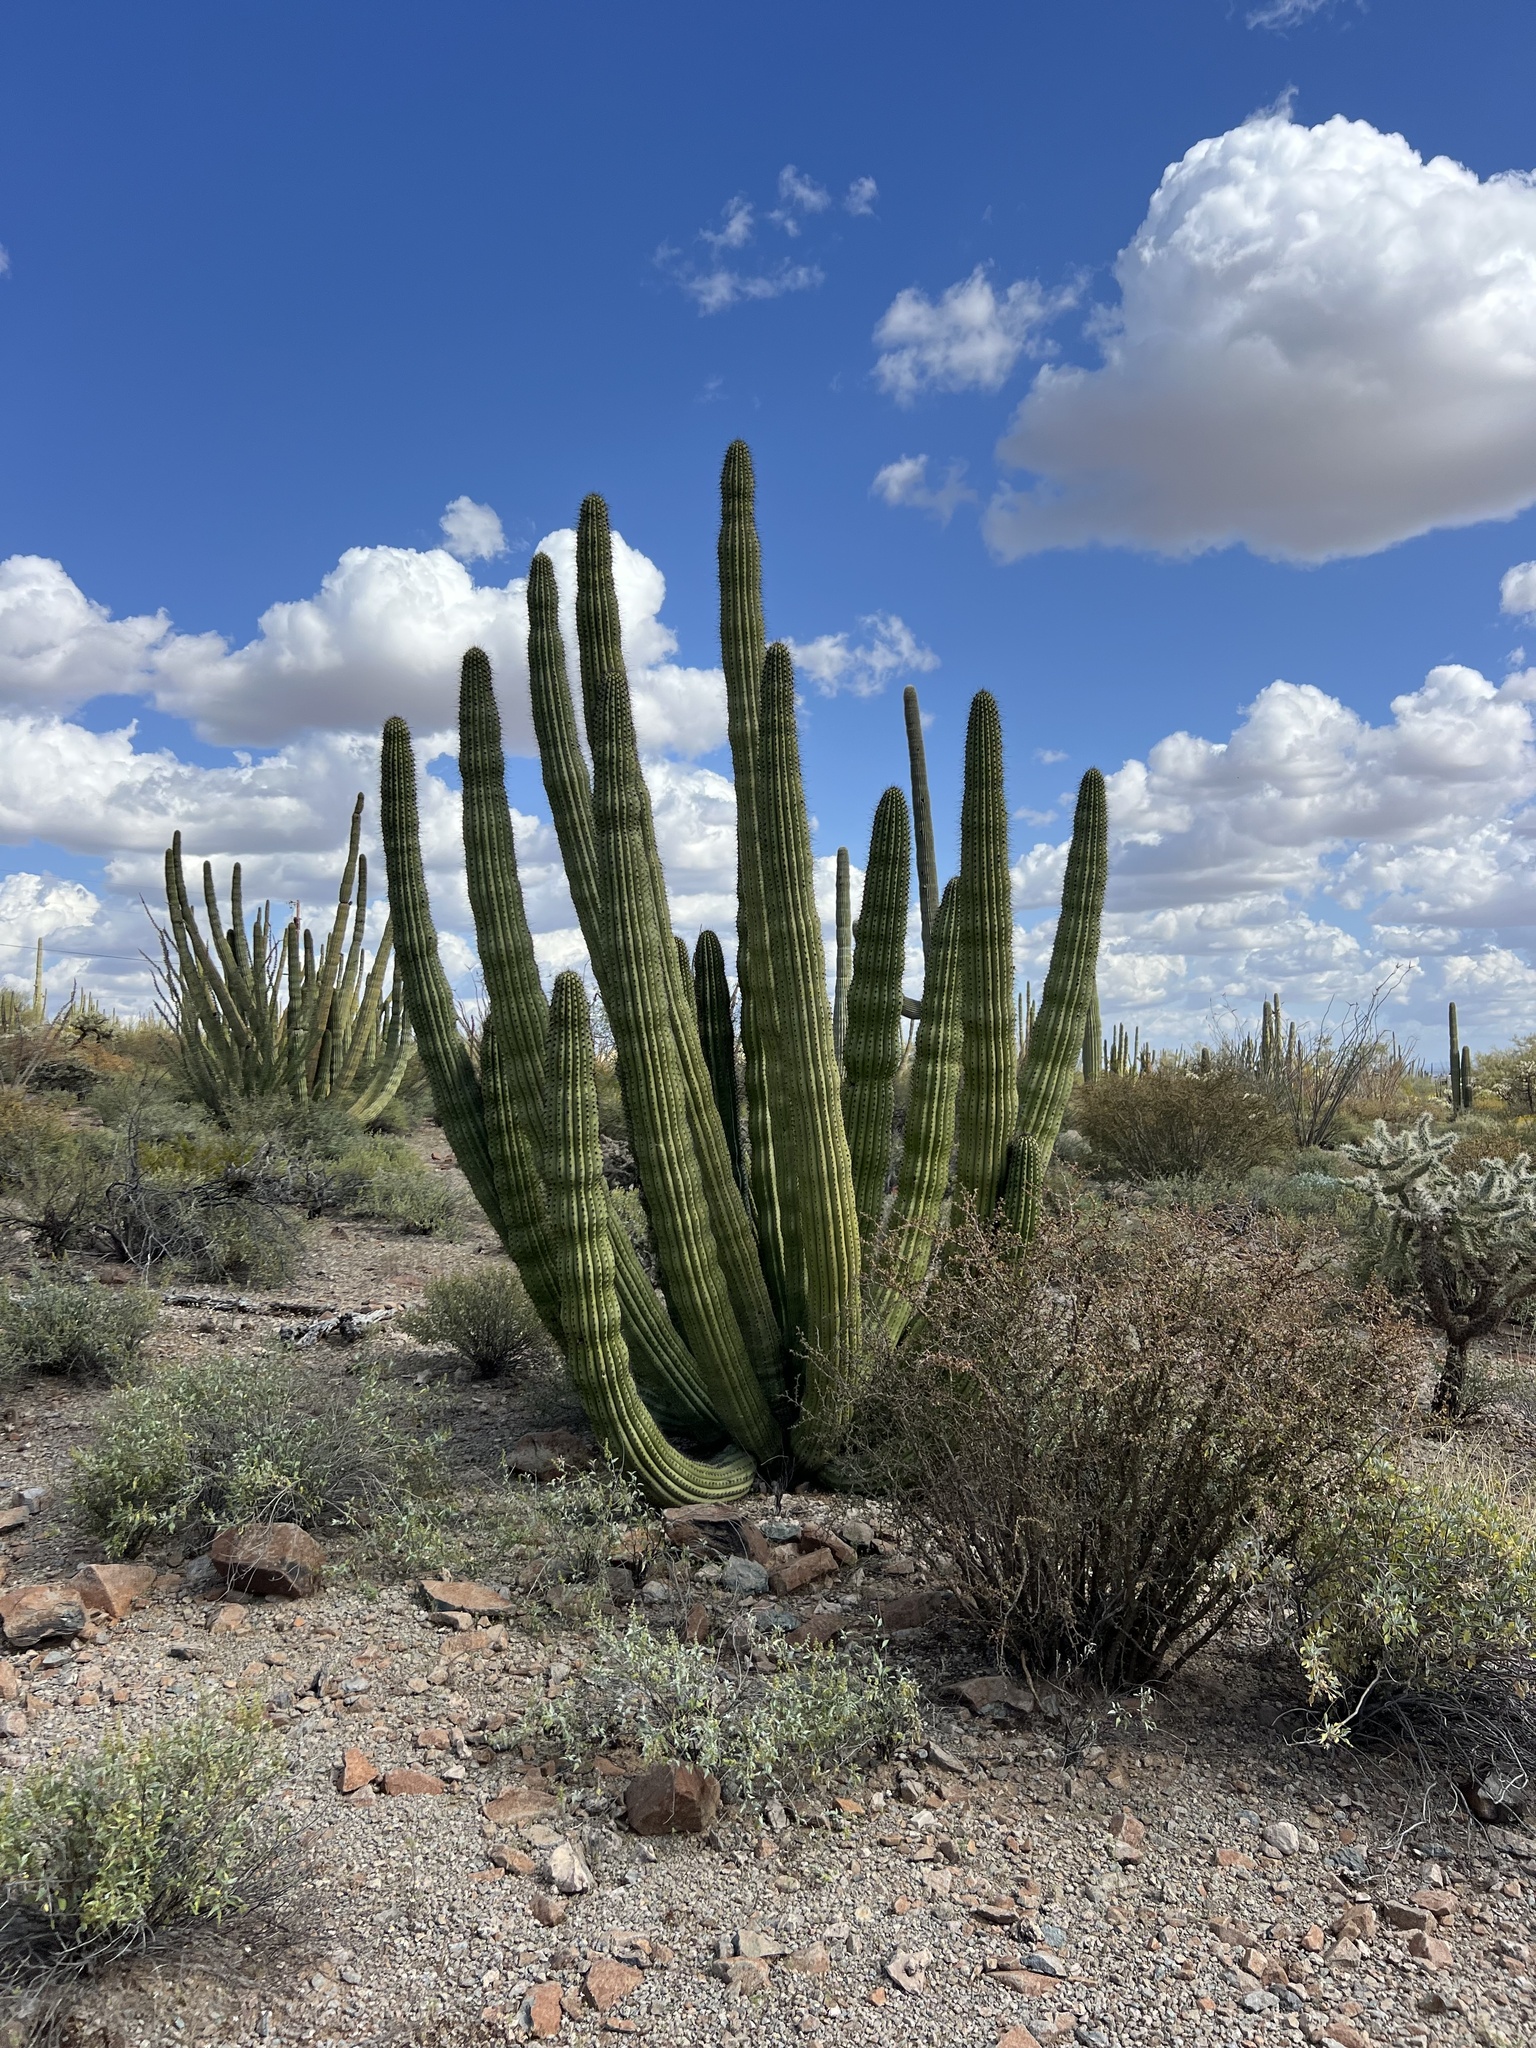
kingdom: Plantae
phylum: Tracheophyta
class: Magnoliopsida
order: Caryophyllales
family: Cactaceae
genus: Stenocereus
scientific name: Stenocereus thurberi
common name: Organ pipe cactus
